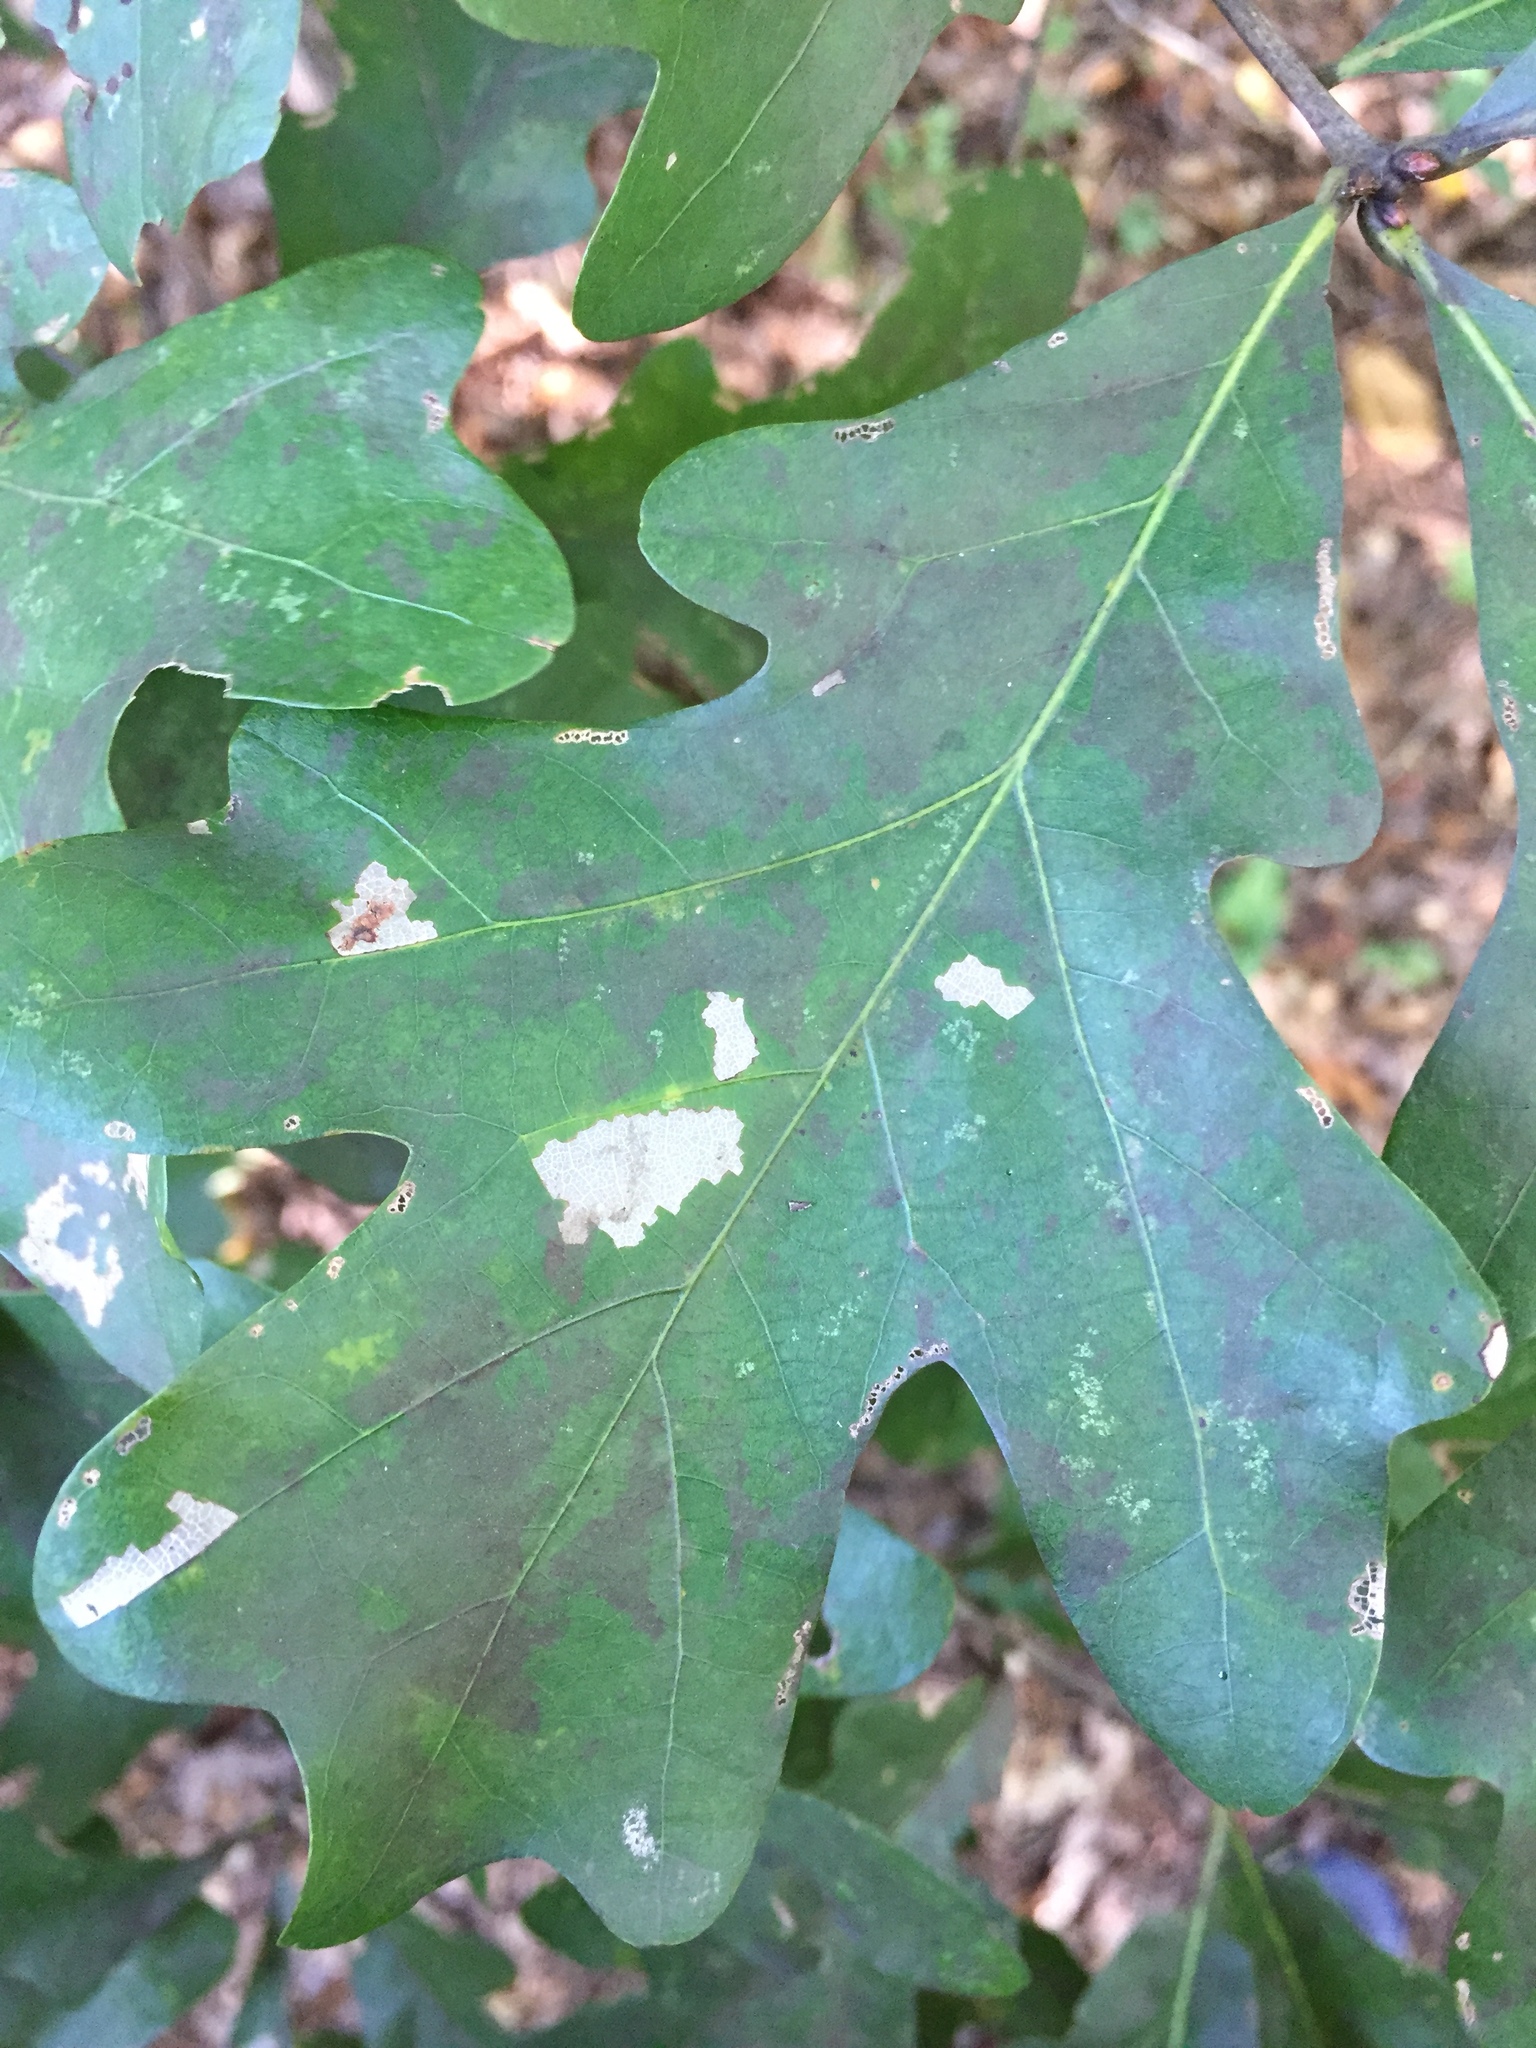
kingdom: Plantae
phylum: Tracheophyta
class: Magnoliopsida
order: Fagales
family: Fagaceae
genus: Quercus
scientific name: Quercus stellata
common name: Post oak
